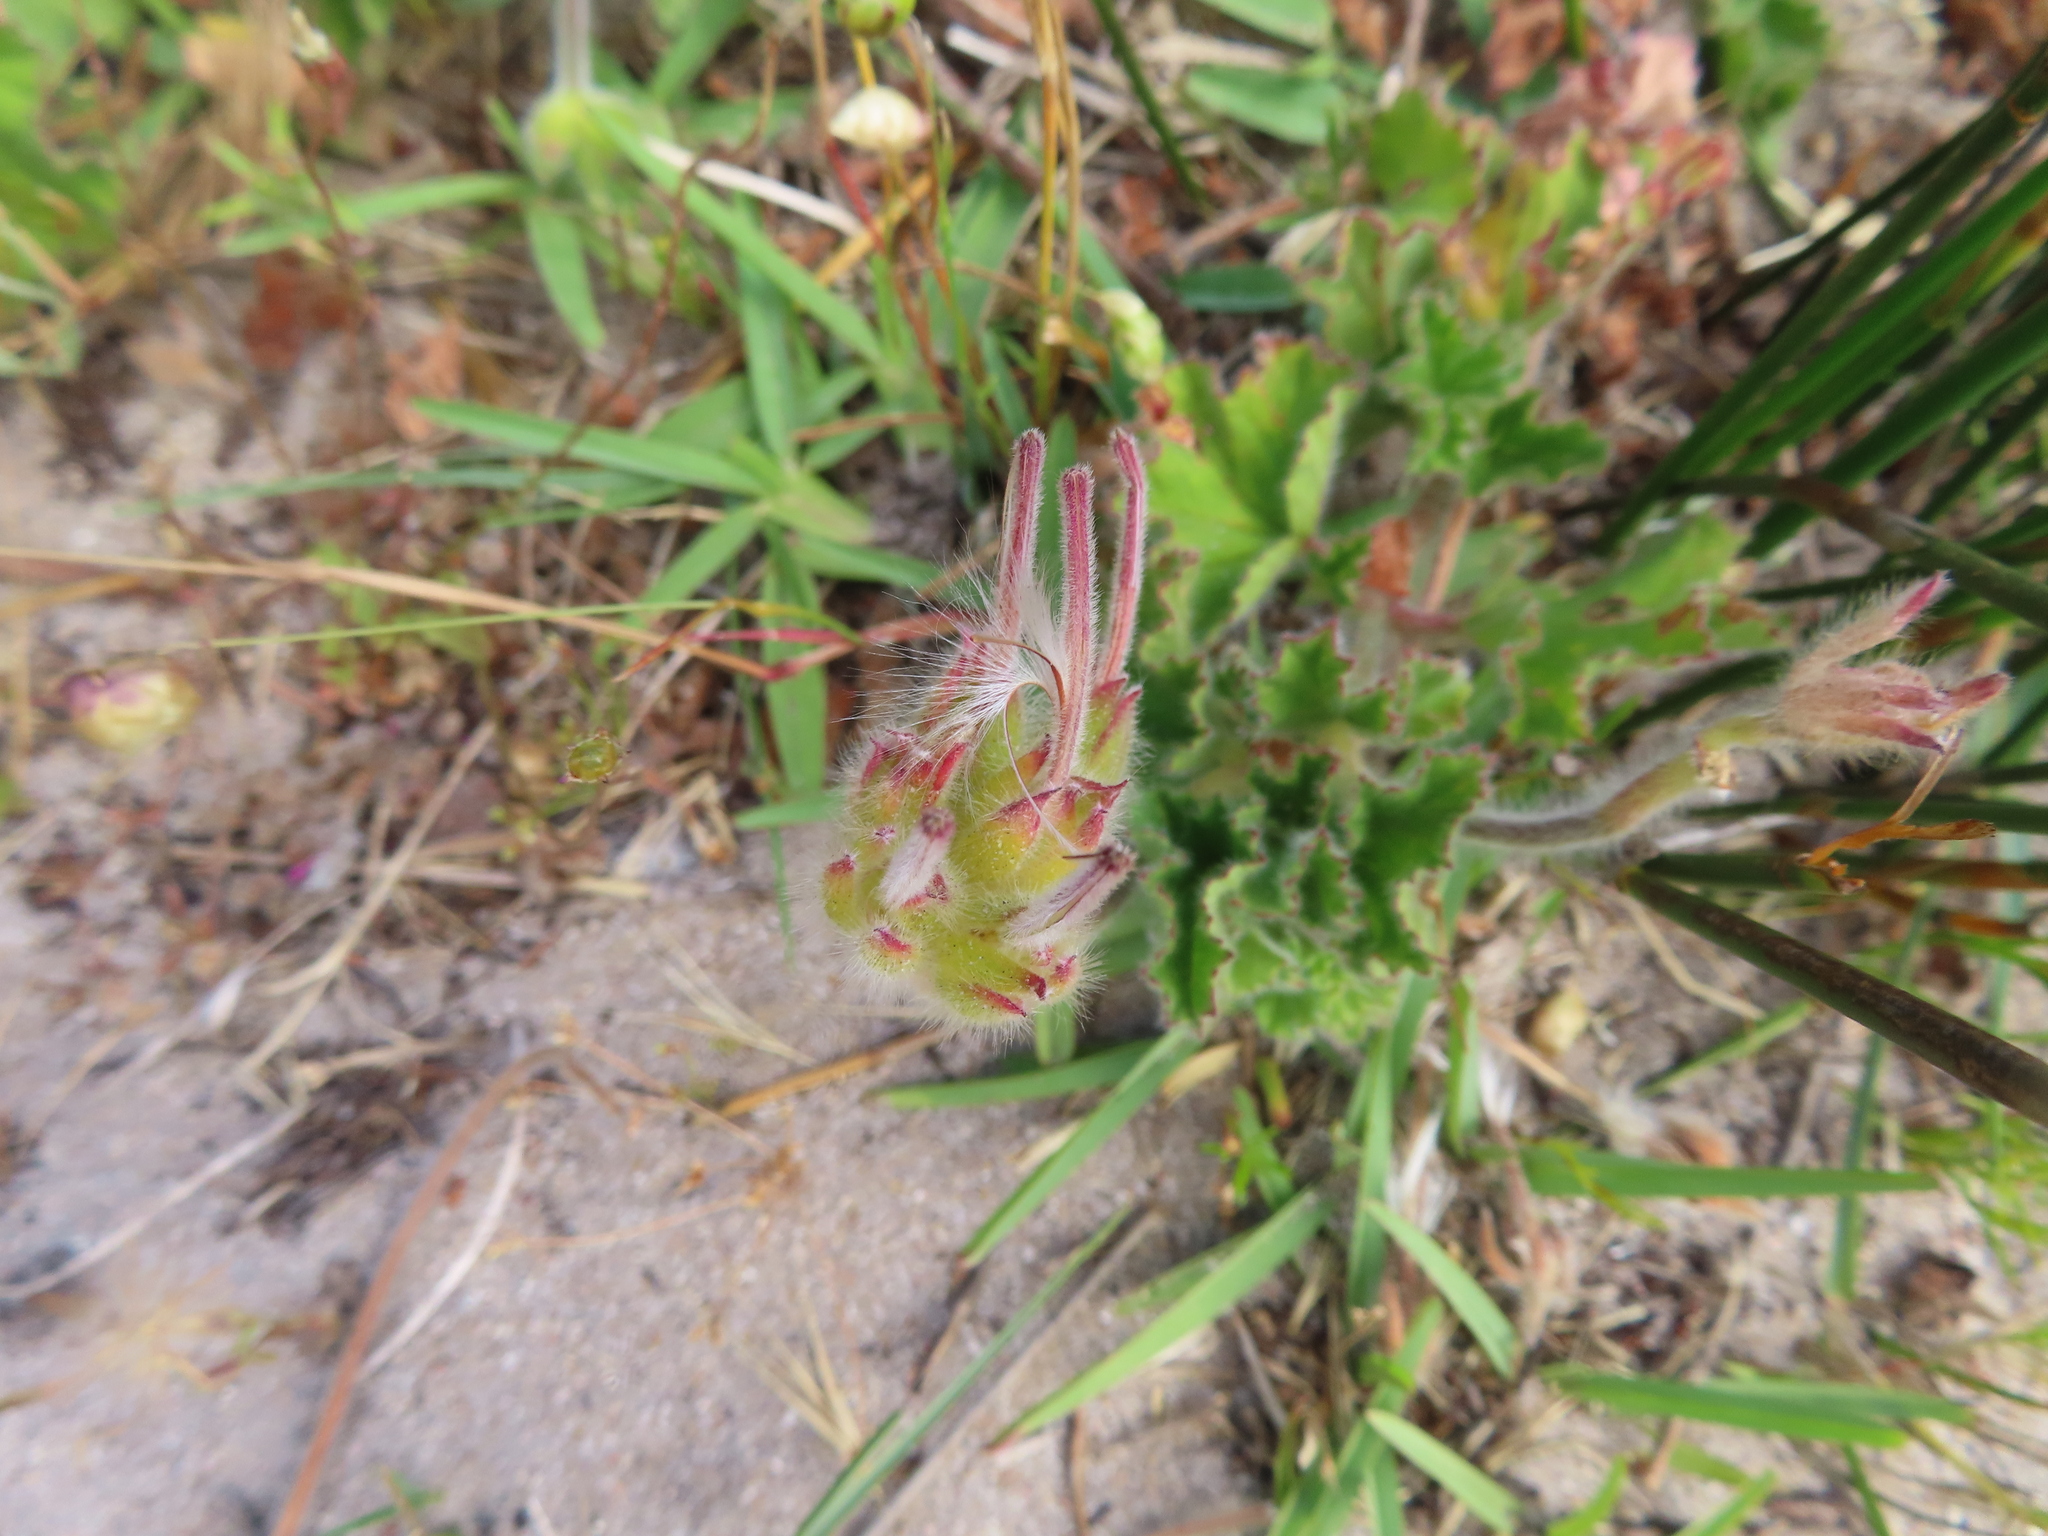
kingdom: Plantae
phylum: Tracheophyta
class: Magnoliopsida
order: Geraniales
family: Geraniaceae
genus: Pelargonium
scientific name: Pelargonium capitatum
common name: Rose scented geranium
